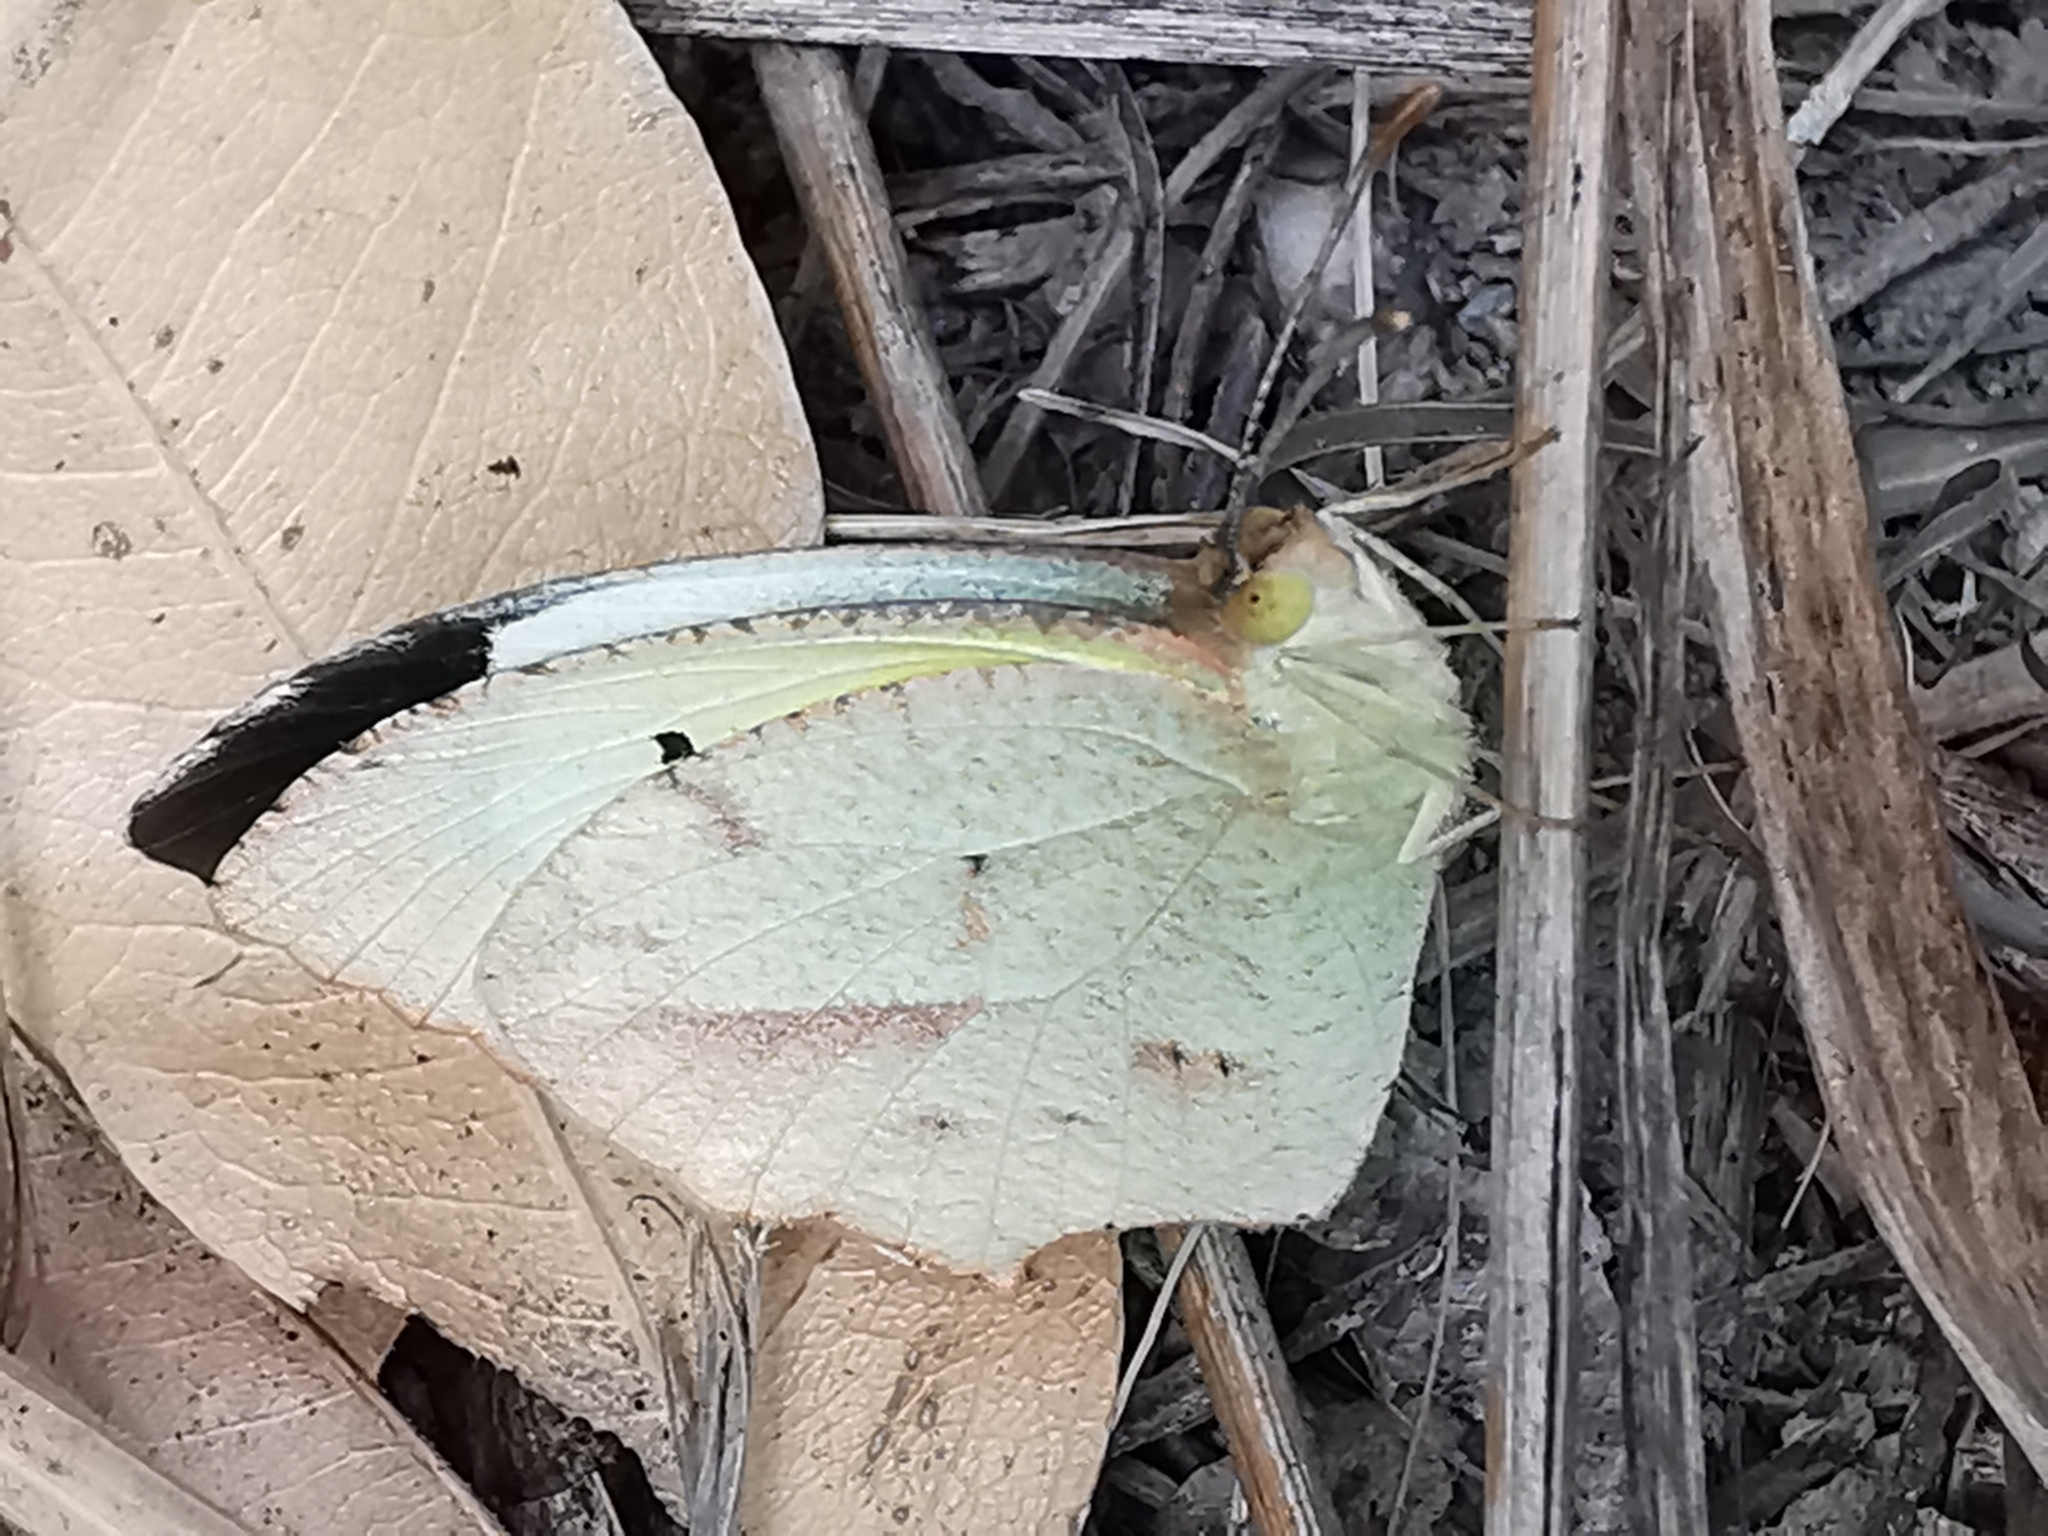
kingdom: Animalia
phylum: Arthropoda
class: Insecta
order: Lepidoptera
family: Pieridae
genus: Abaeis
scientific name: Abaeis mexicana
